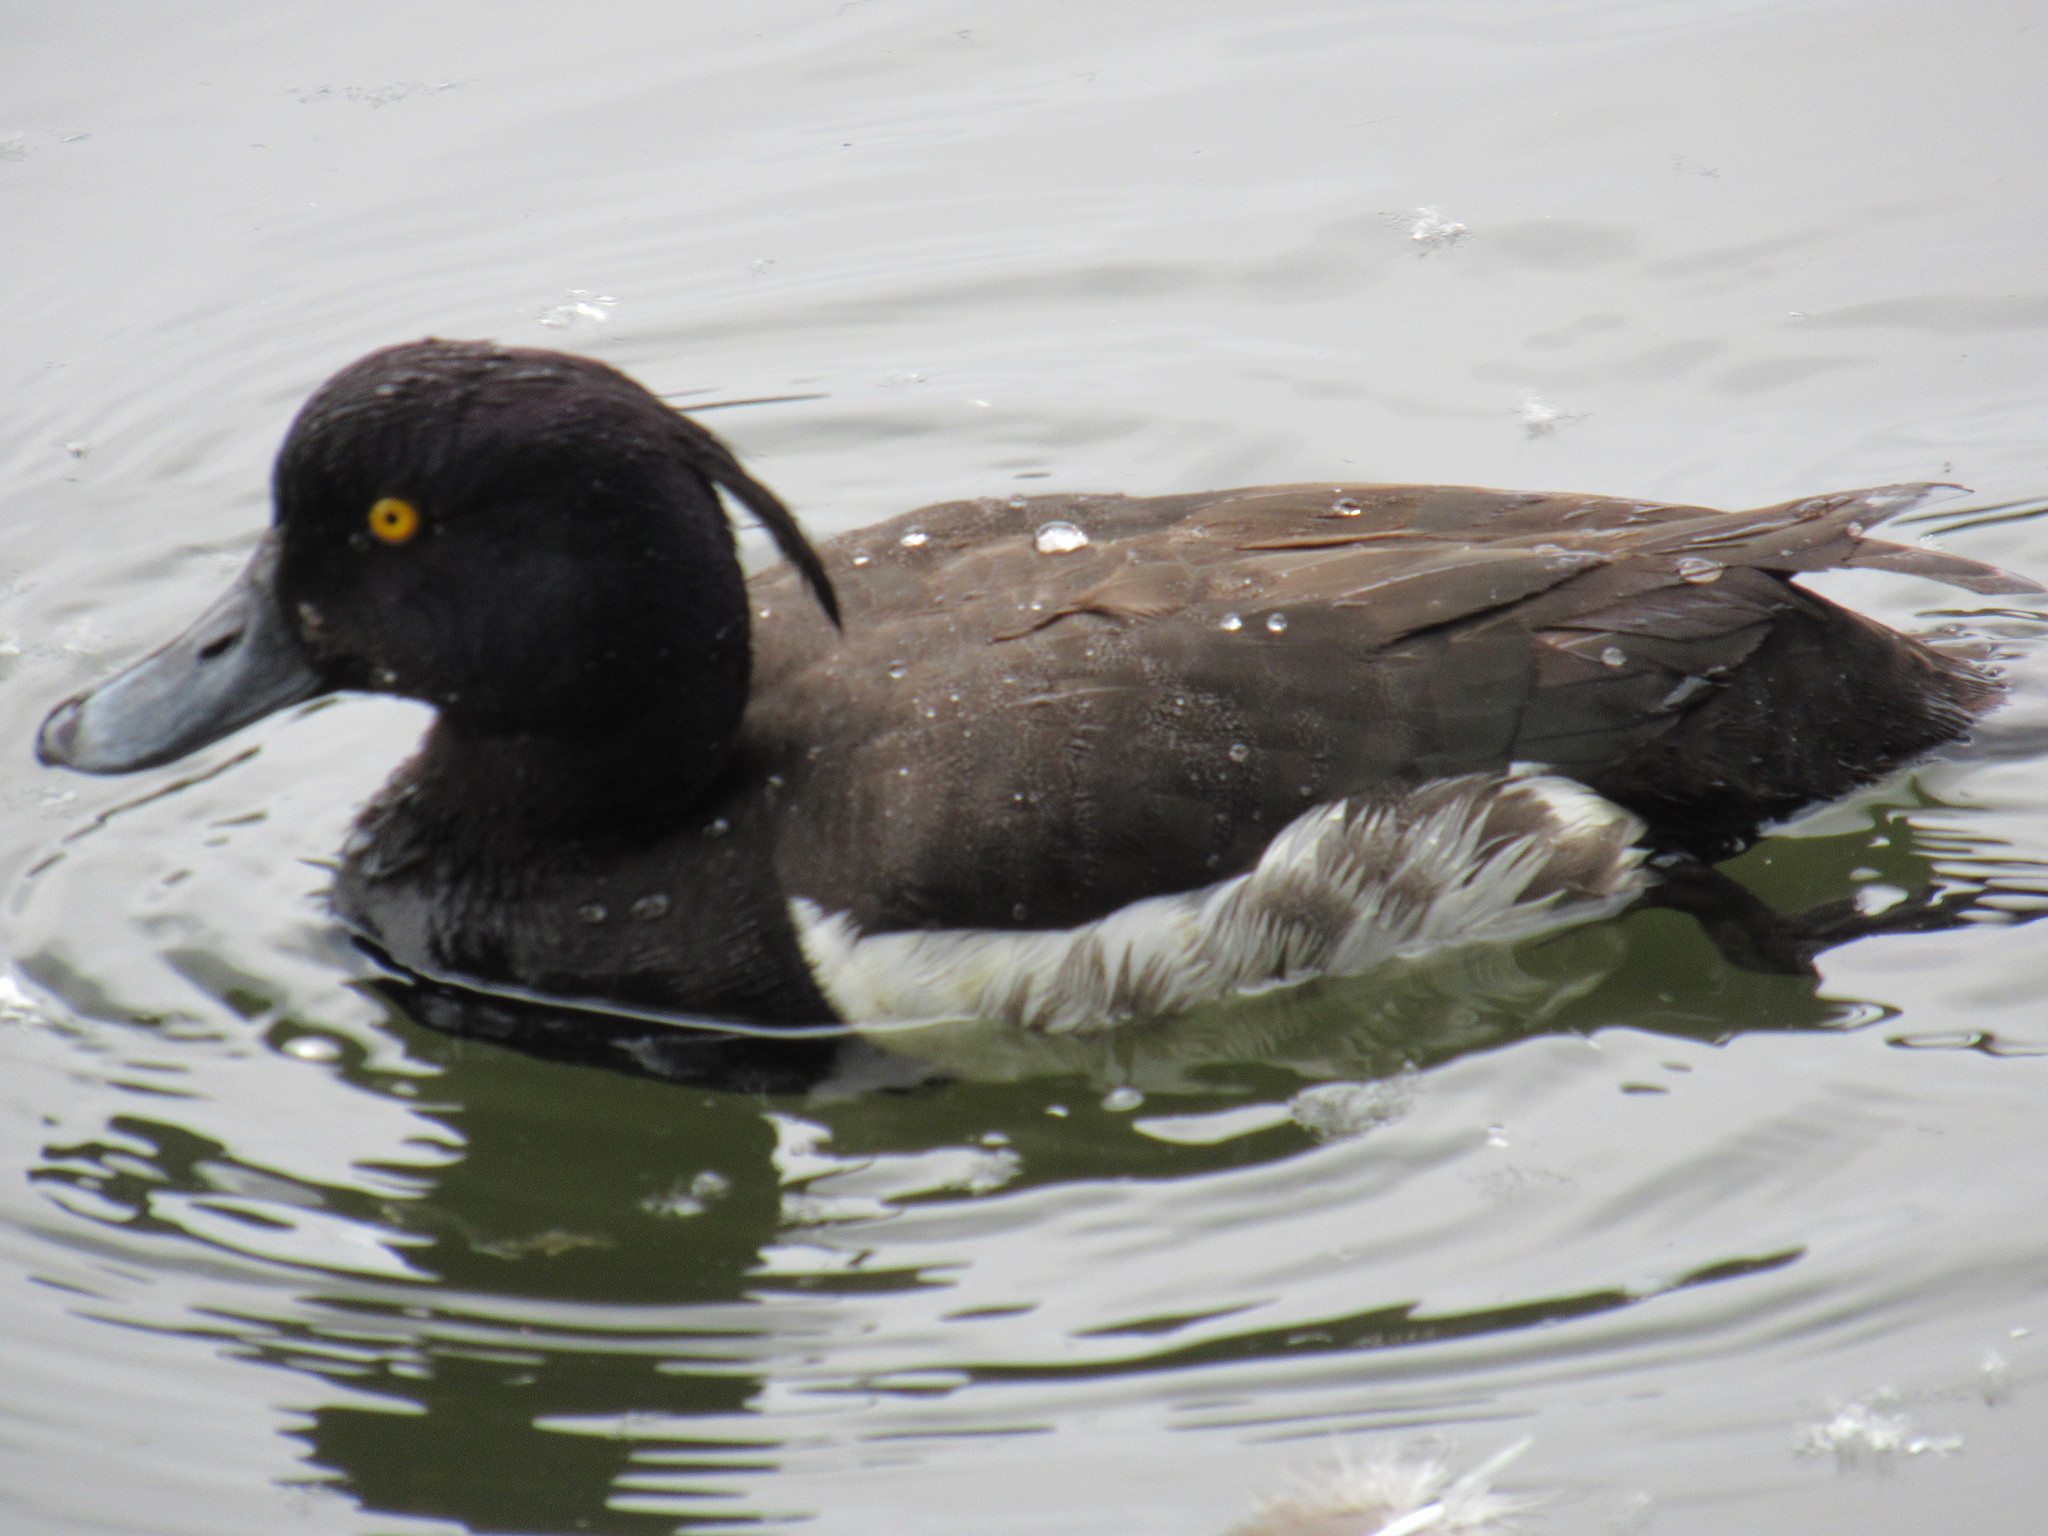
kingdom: Animalia
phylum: Chordata
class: Aves
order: Anseriformes
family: Anatidae
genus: Aythya
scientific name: Aythya fuligula
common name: Tufted duck
